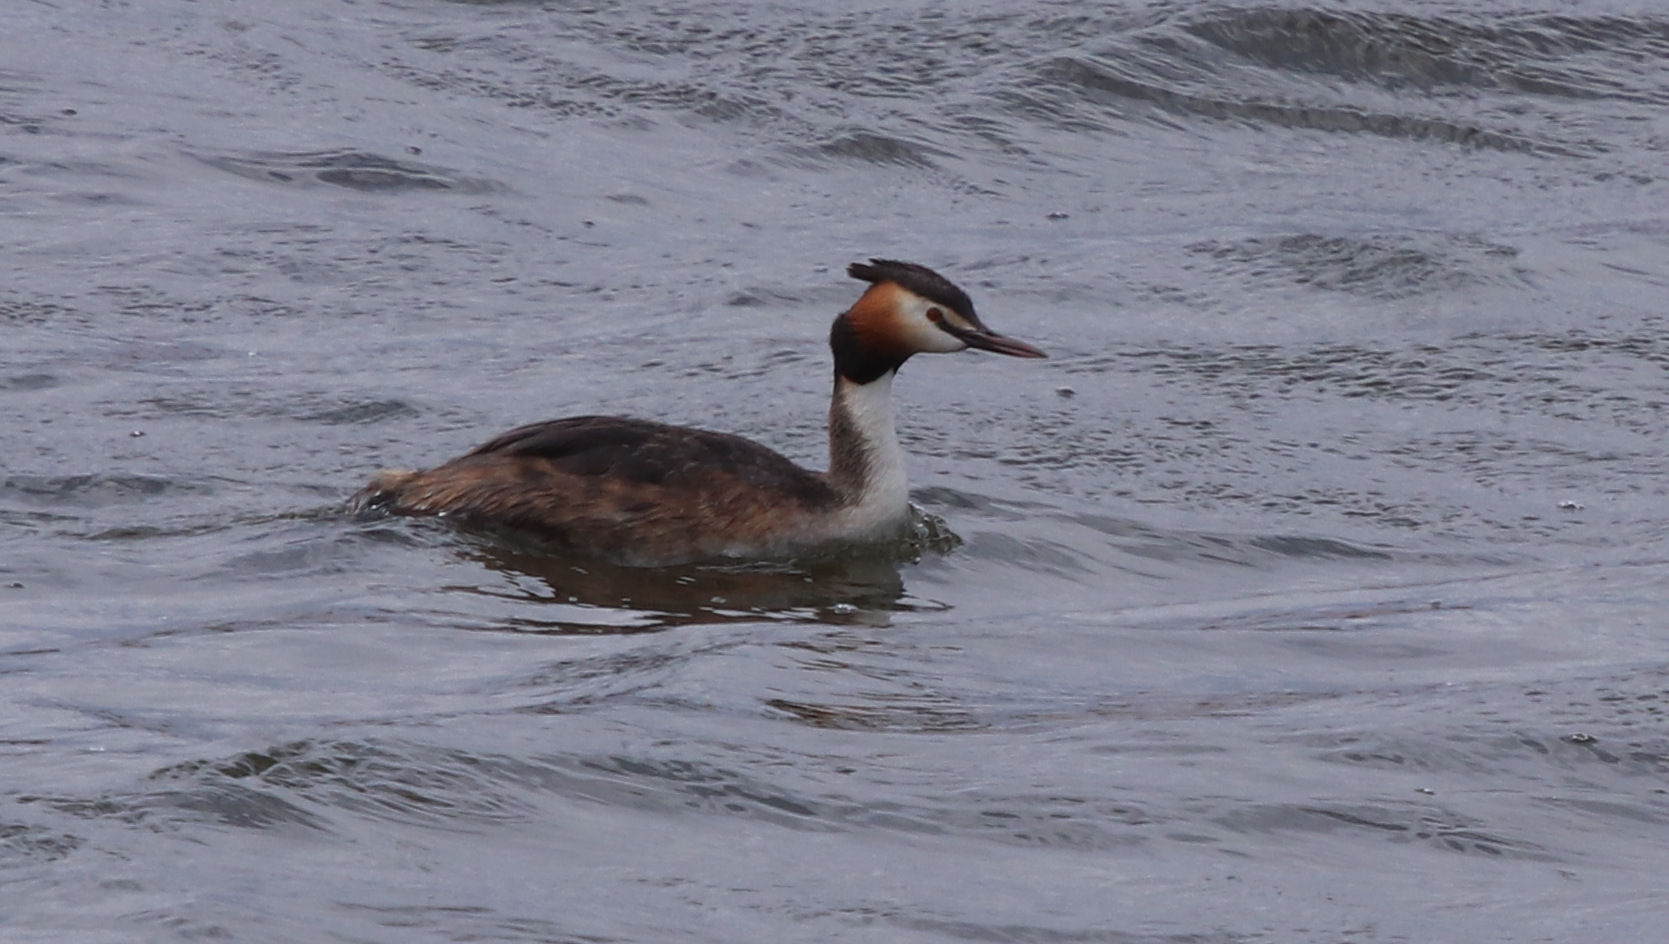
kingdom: Animalia
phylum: Chordata
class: Aves
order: Podicipediformes
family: Podicipedidae
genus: Podiceps
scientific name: Podiceps cristatus
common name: Great crested grebe
